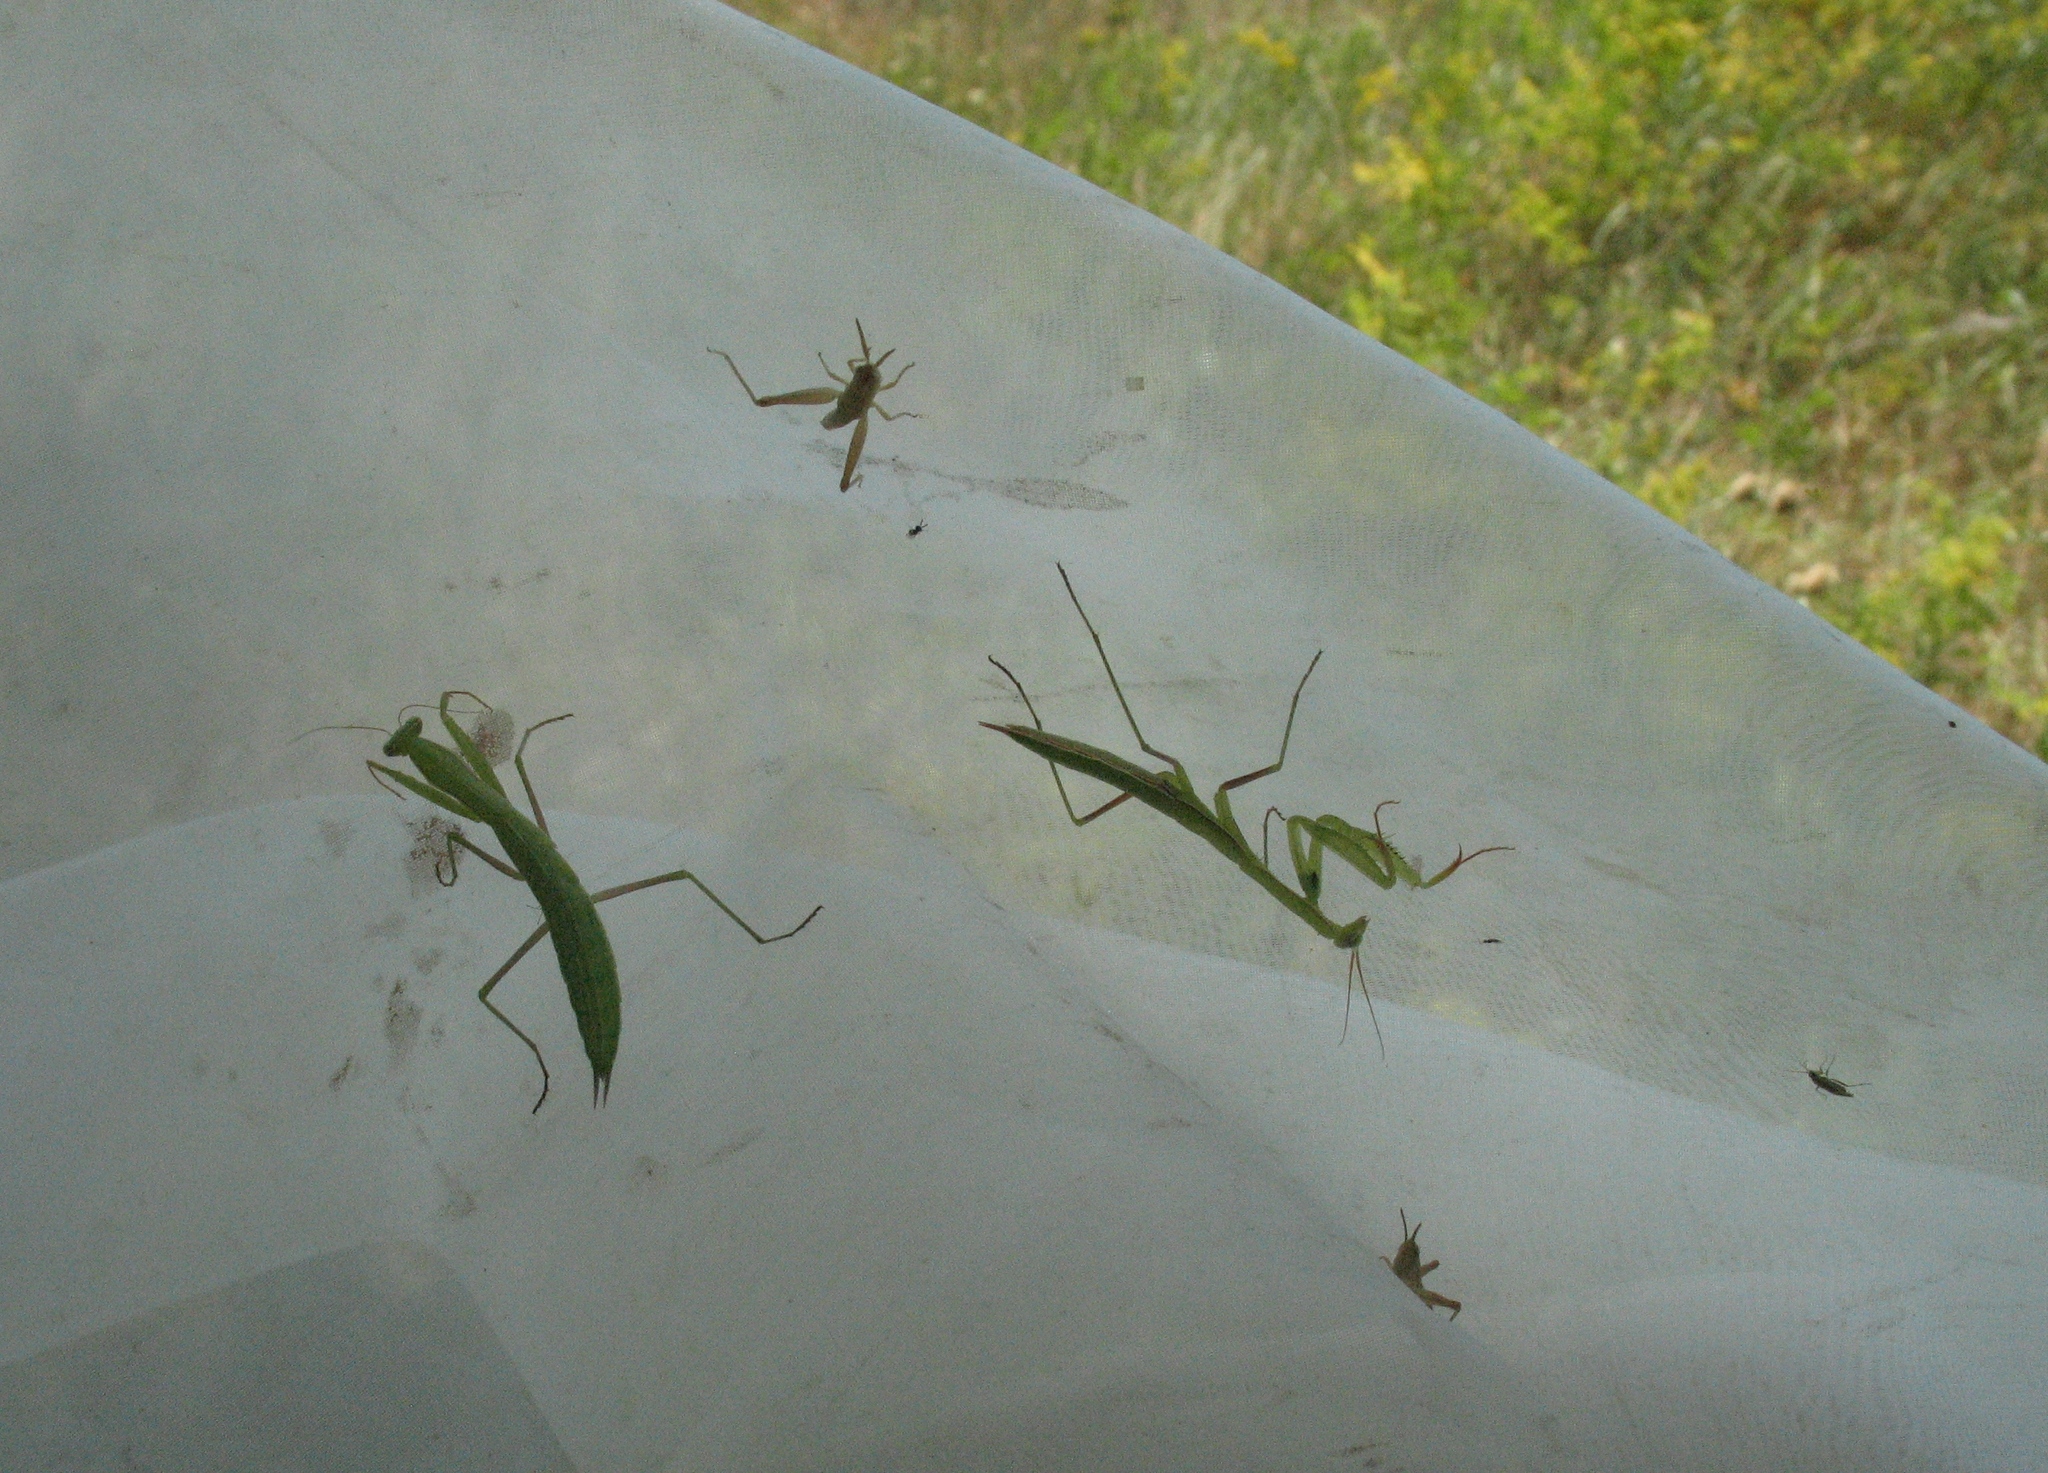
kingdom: Animalia
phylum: Arthropoda
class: Insecta
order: Mantodea
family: Mantidae
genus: Mantis
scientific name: Mantis religiosa
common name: Praying mantis
